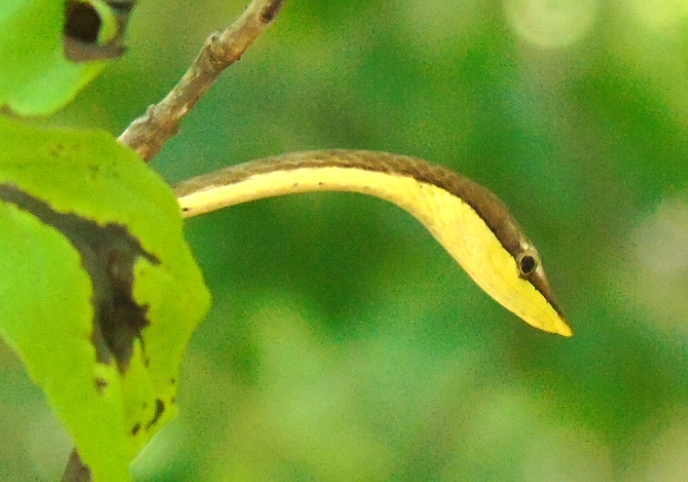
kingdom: Animalia
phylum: Chordata
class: Squamata
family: Colubridae
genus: Oxybelis
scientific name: Oxybelis microphthalmus
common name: Thrornscrub vine snake
